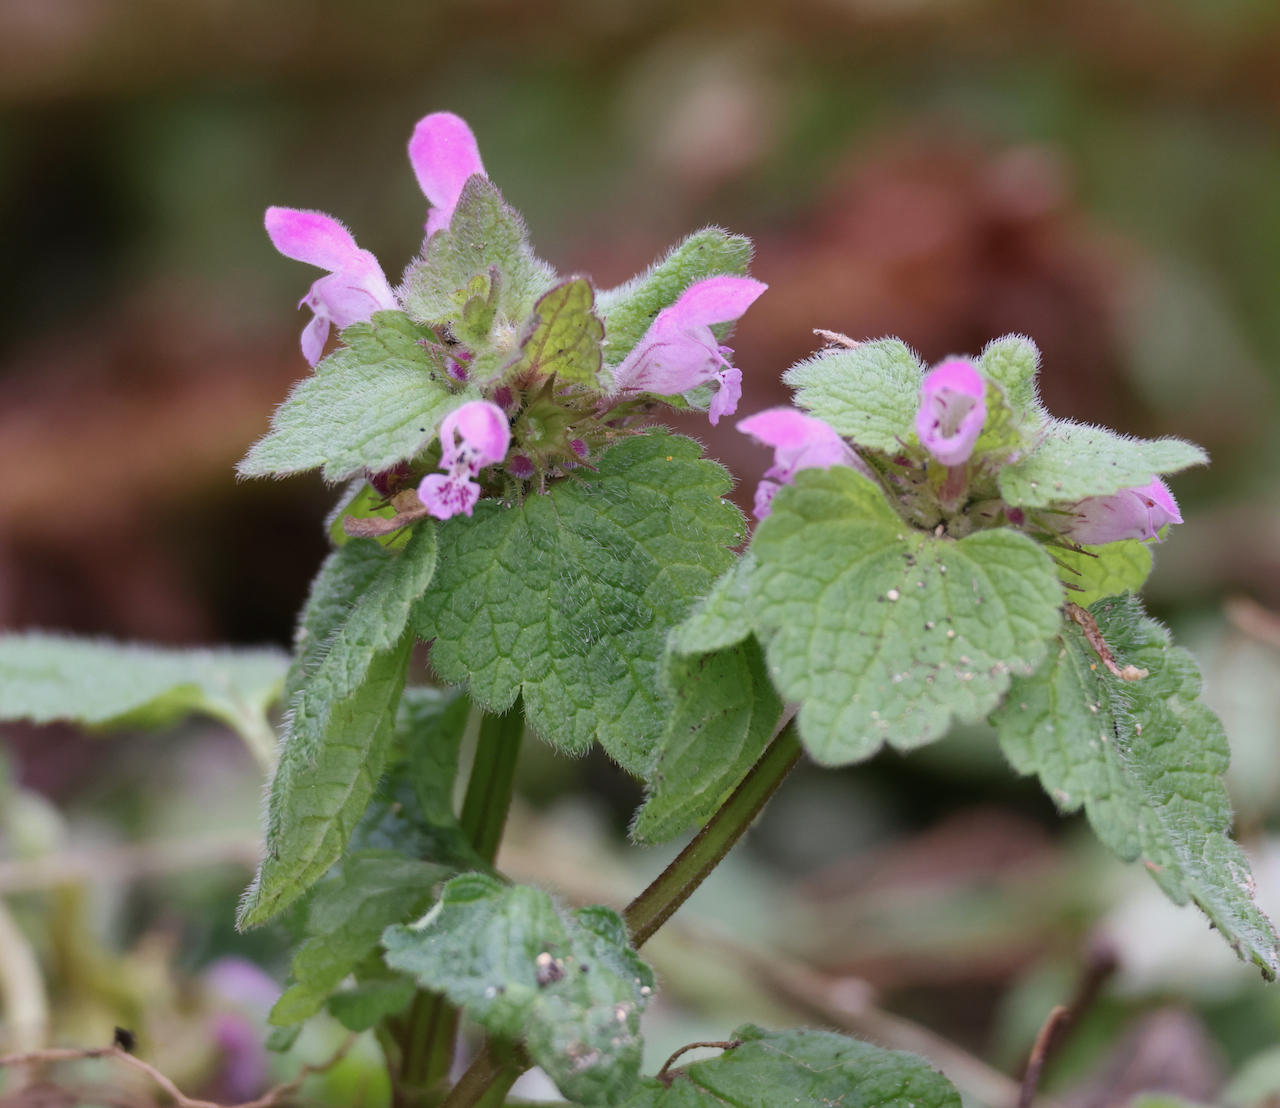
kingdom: Plantae
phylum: Tracheophyta
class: Magnoliopsida
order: Lamiales
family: Lamiaceae
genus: Lamium
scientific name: Lamium purpureum
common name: Red dead-nettle
